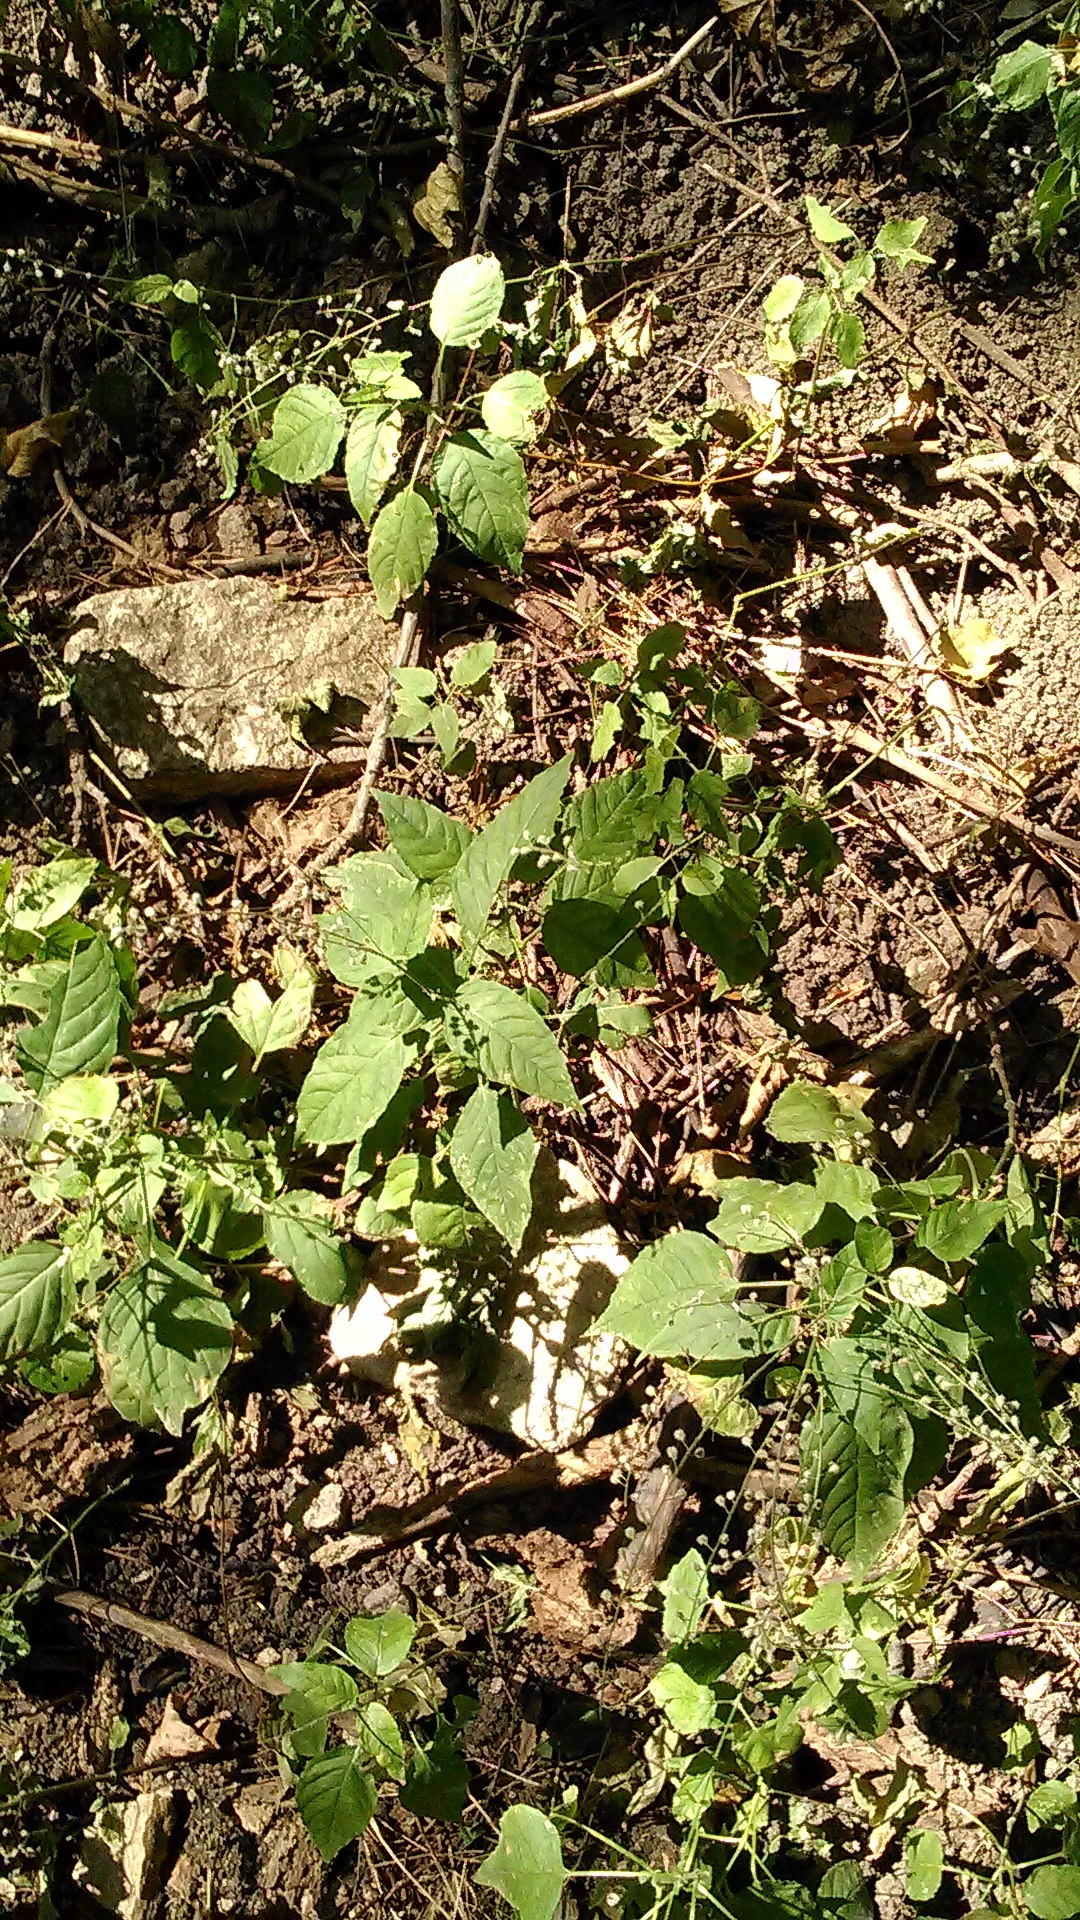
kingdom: Plantae
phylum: Tracheophyta
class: Magnoliopsida
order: Myrtales
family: Onagraceae
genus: Circaea
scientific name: Circaea lutetiana
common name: Enchanter's-nightshade
